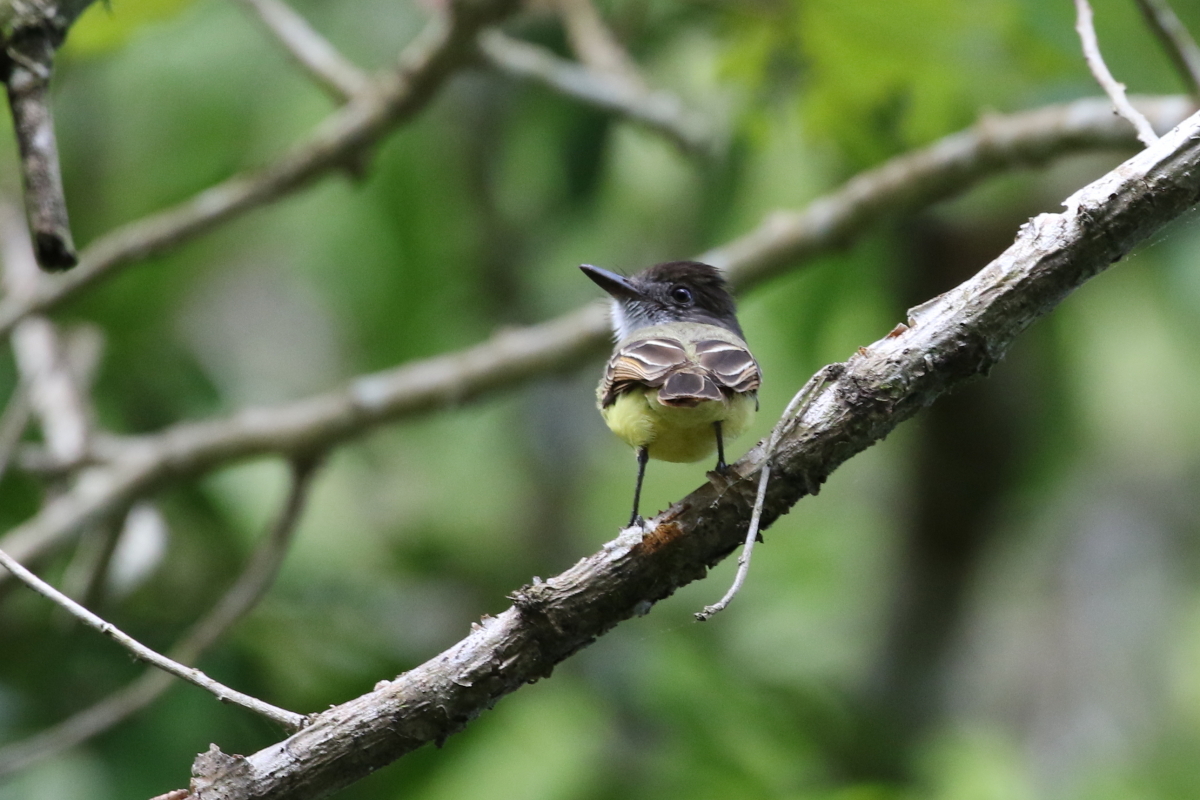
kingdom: Animalia
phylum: Chordata
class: Aves
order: Passeriformes
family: Tyrannidae
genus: Myiarchus
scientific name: Myiarchus tuberculifer
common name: Dusky-capped flycatcher
